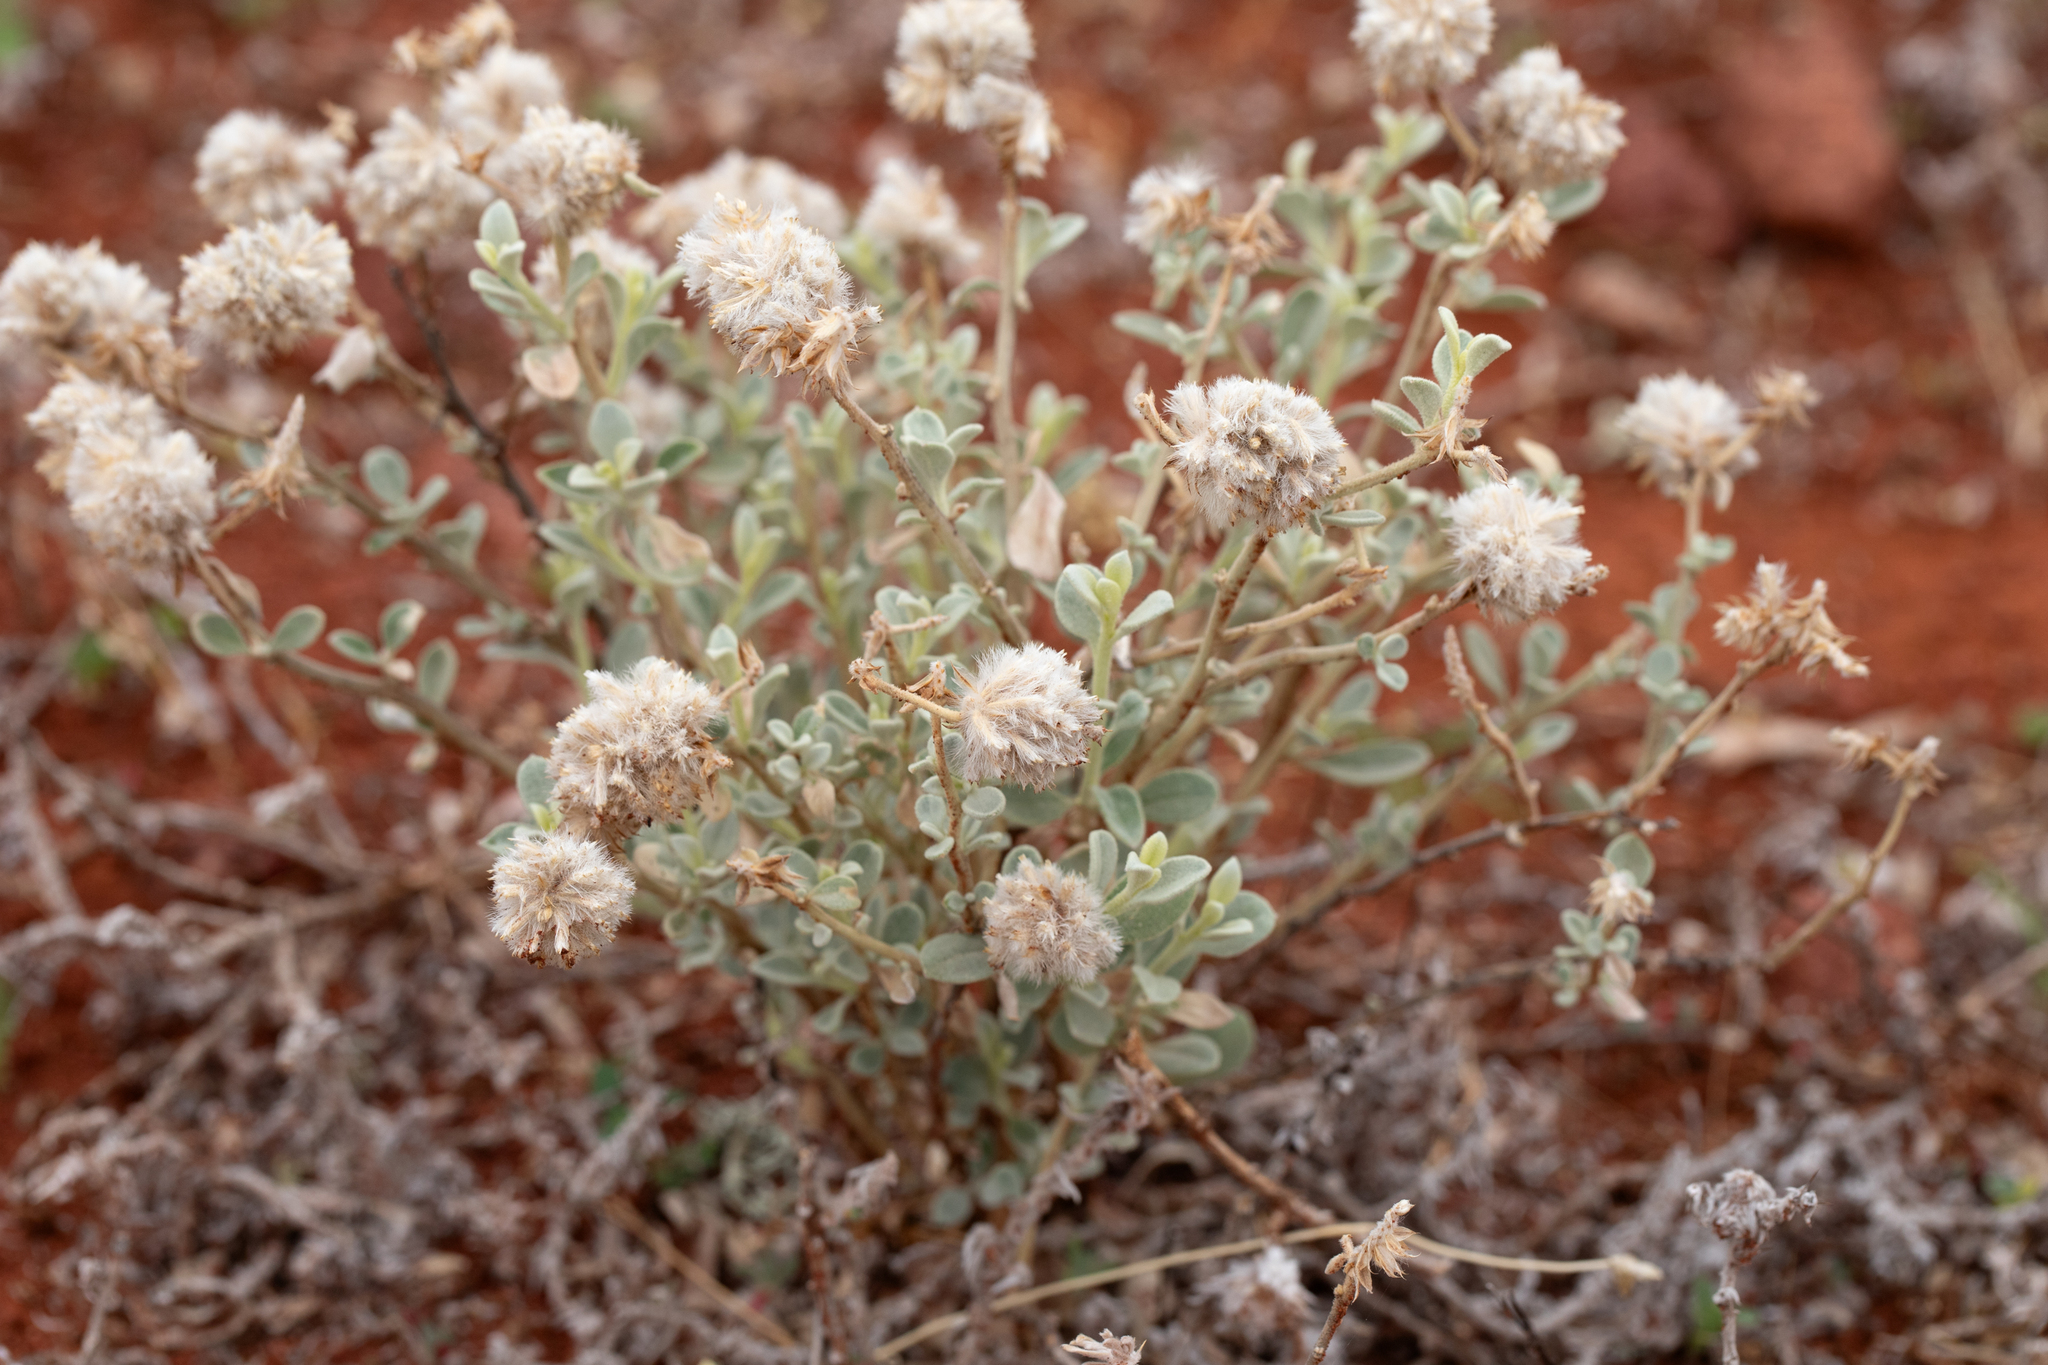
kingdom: Plantae
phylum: Tracheophyta
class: Magnoliopsida
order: Caryophyllales
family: Amaranthaceae
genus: Ptilotus
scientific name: Ptilotus obovatus
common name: Cottonbush
